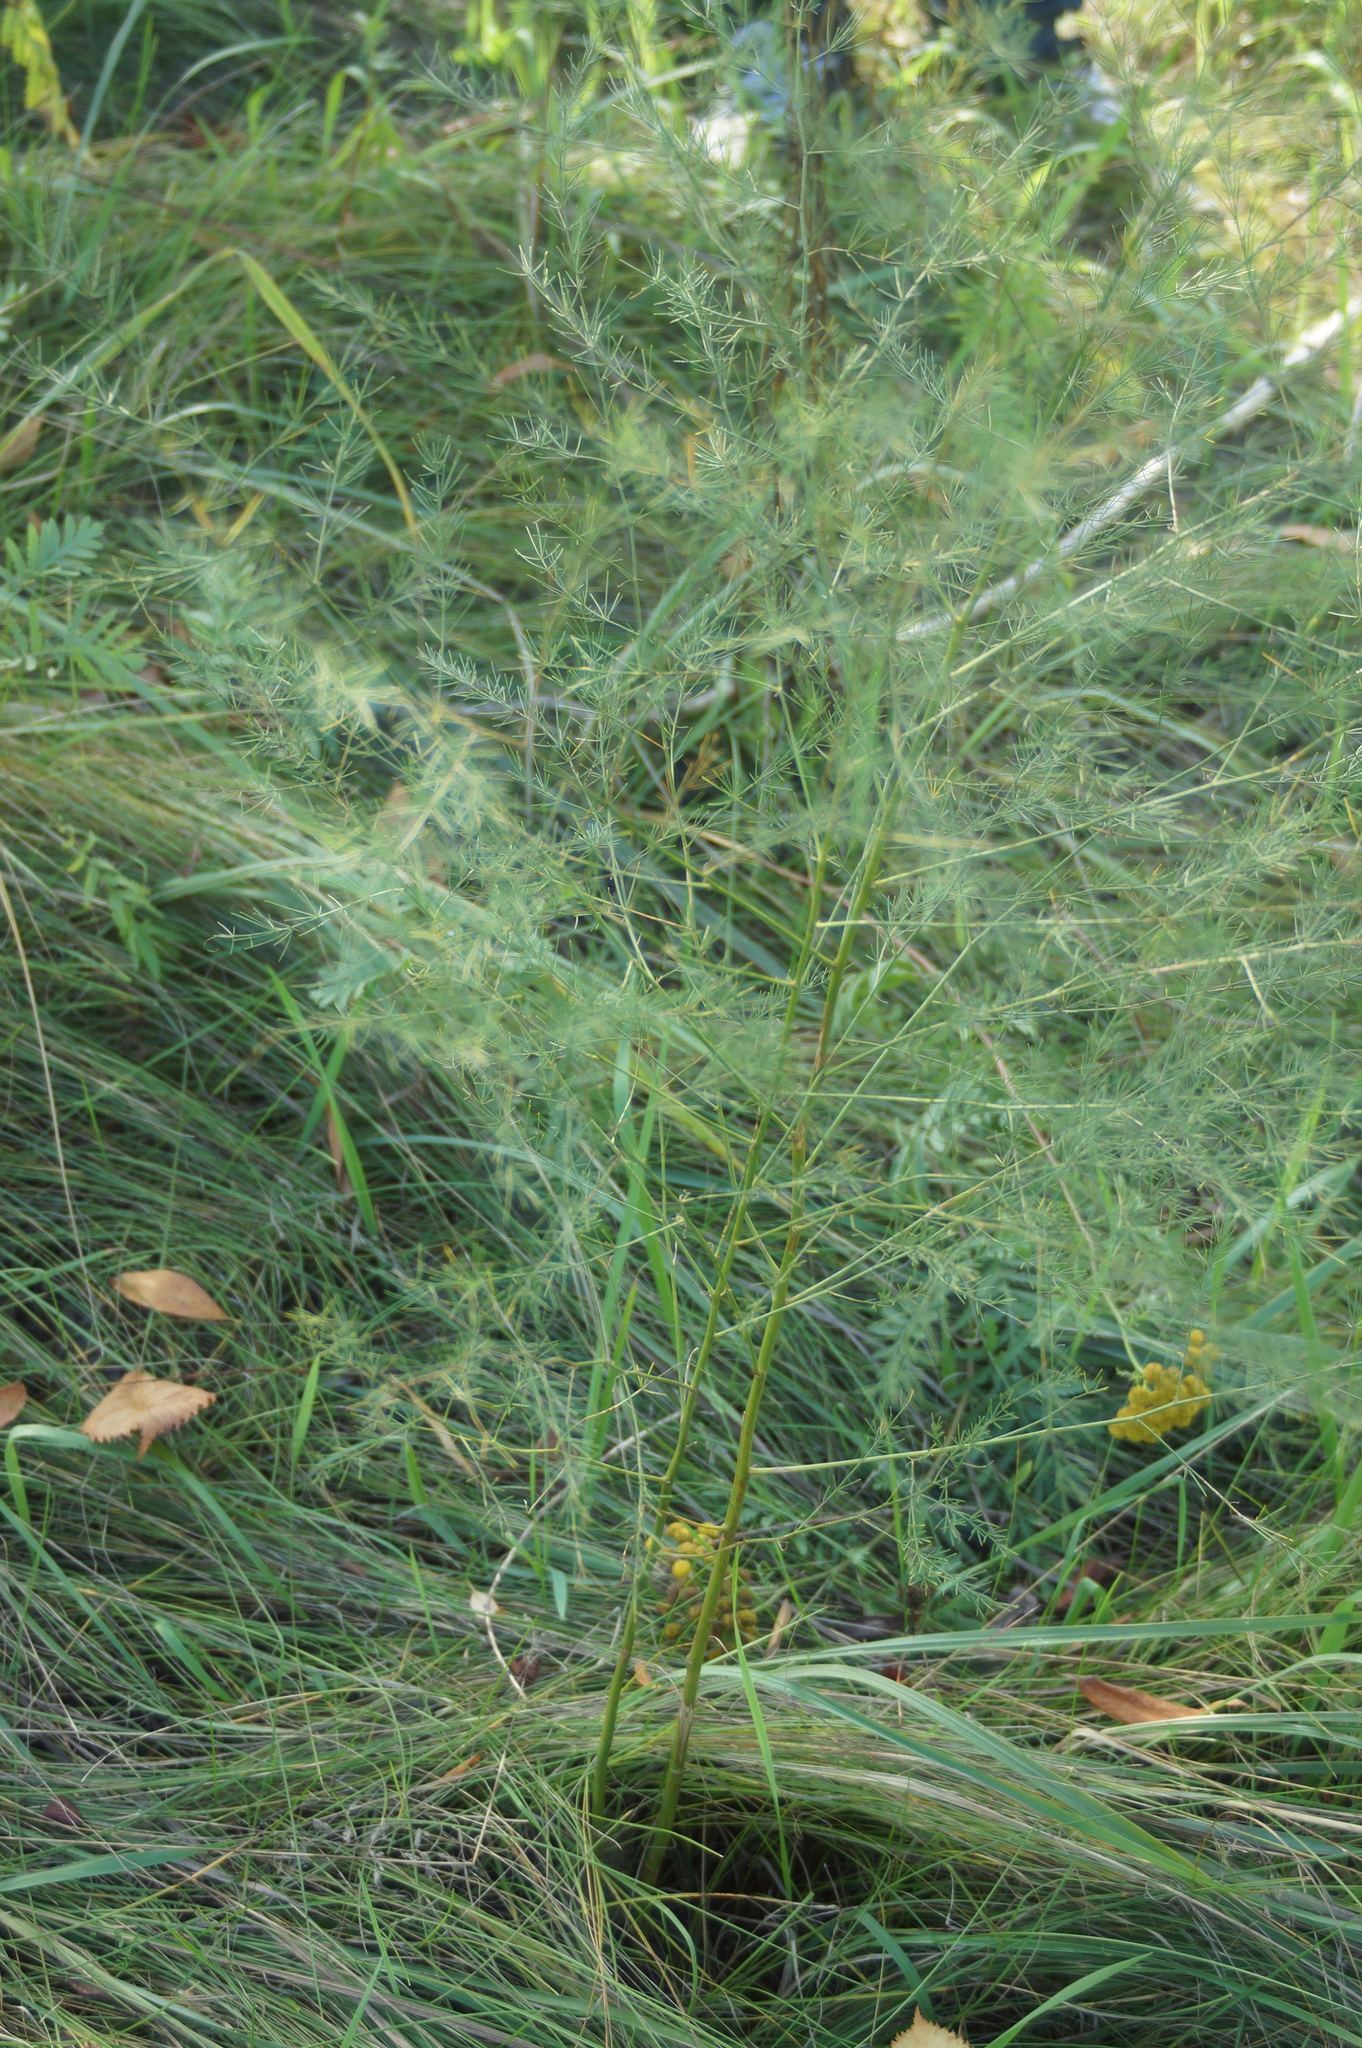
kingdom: Plantae
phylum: Tracheophyta
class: Liliopsida
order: Asparagales
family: Asparagaceae
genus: Asparagus
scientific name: Asparagus officinalis
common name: Garden asparagus
